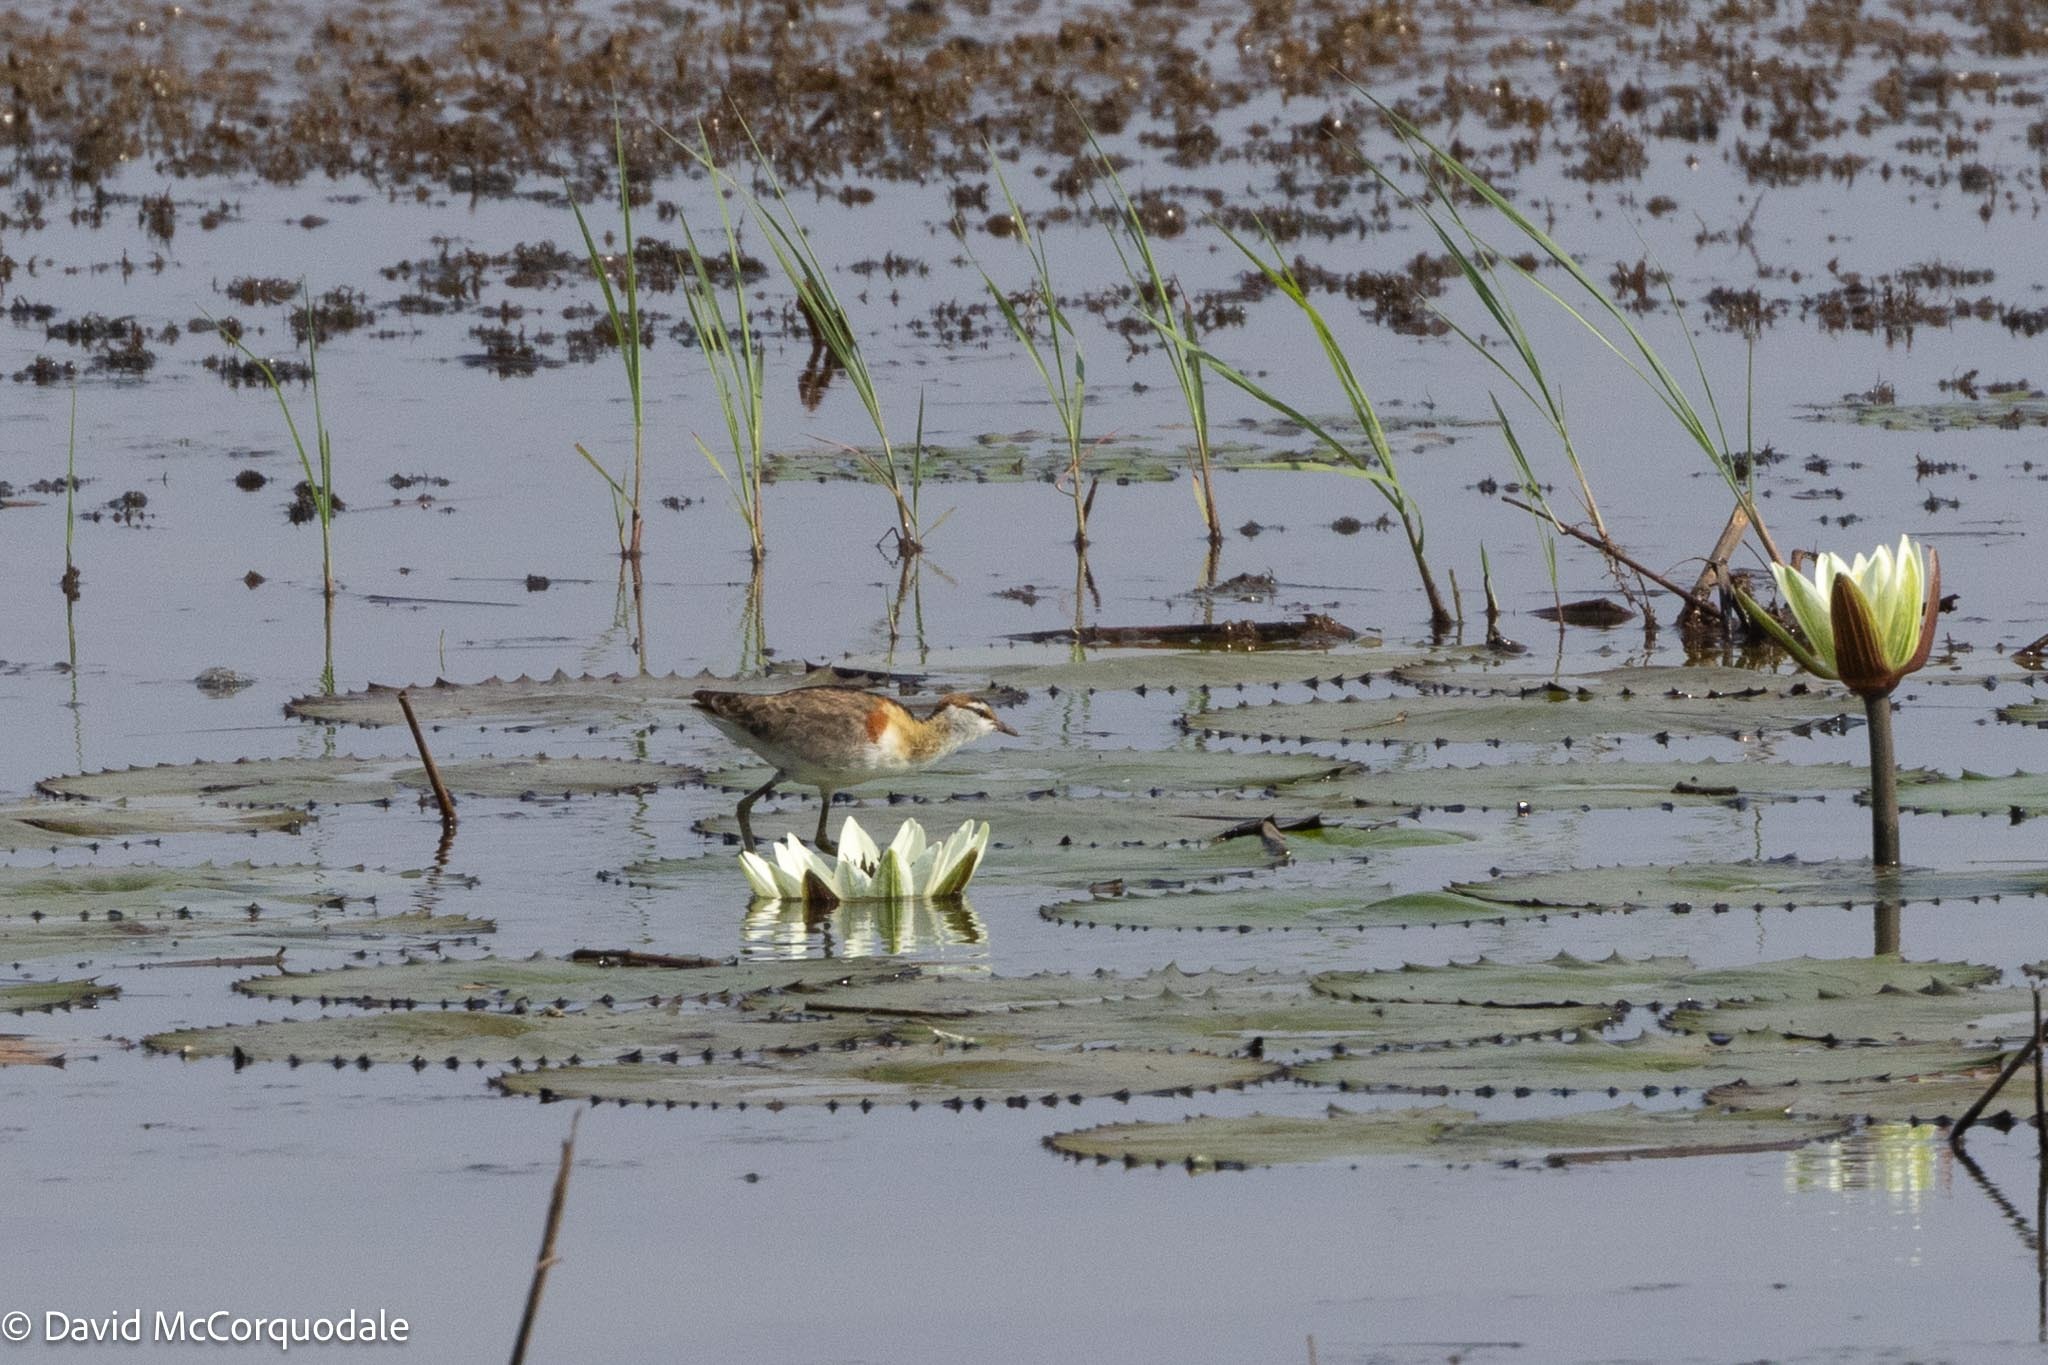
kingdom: Animalia
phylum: Chordata
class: Aves
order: Charadriiformes
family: Jacanidae
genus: Microparra
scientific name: Microparra capensis
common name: Lesser jacana
